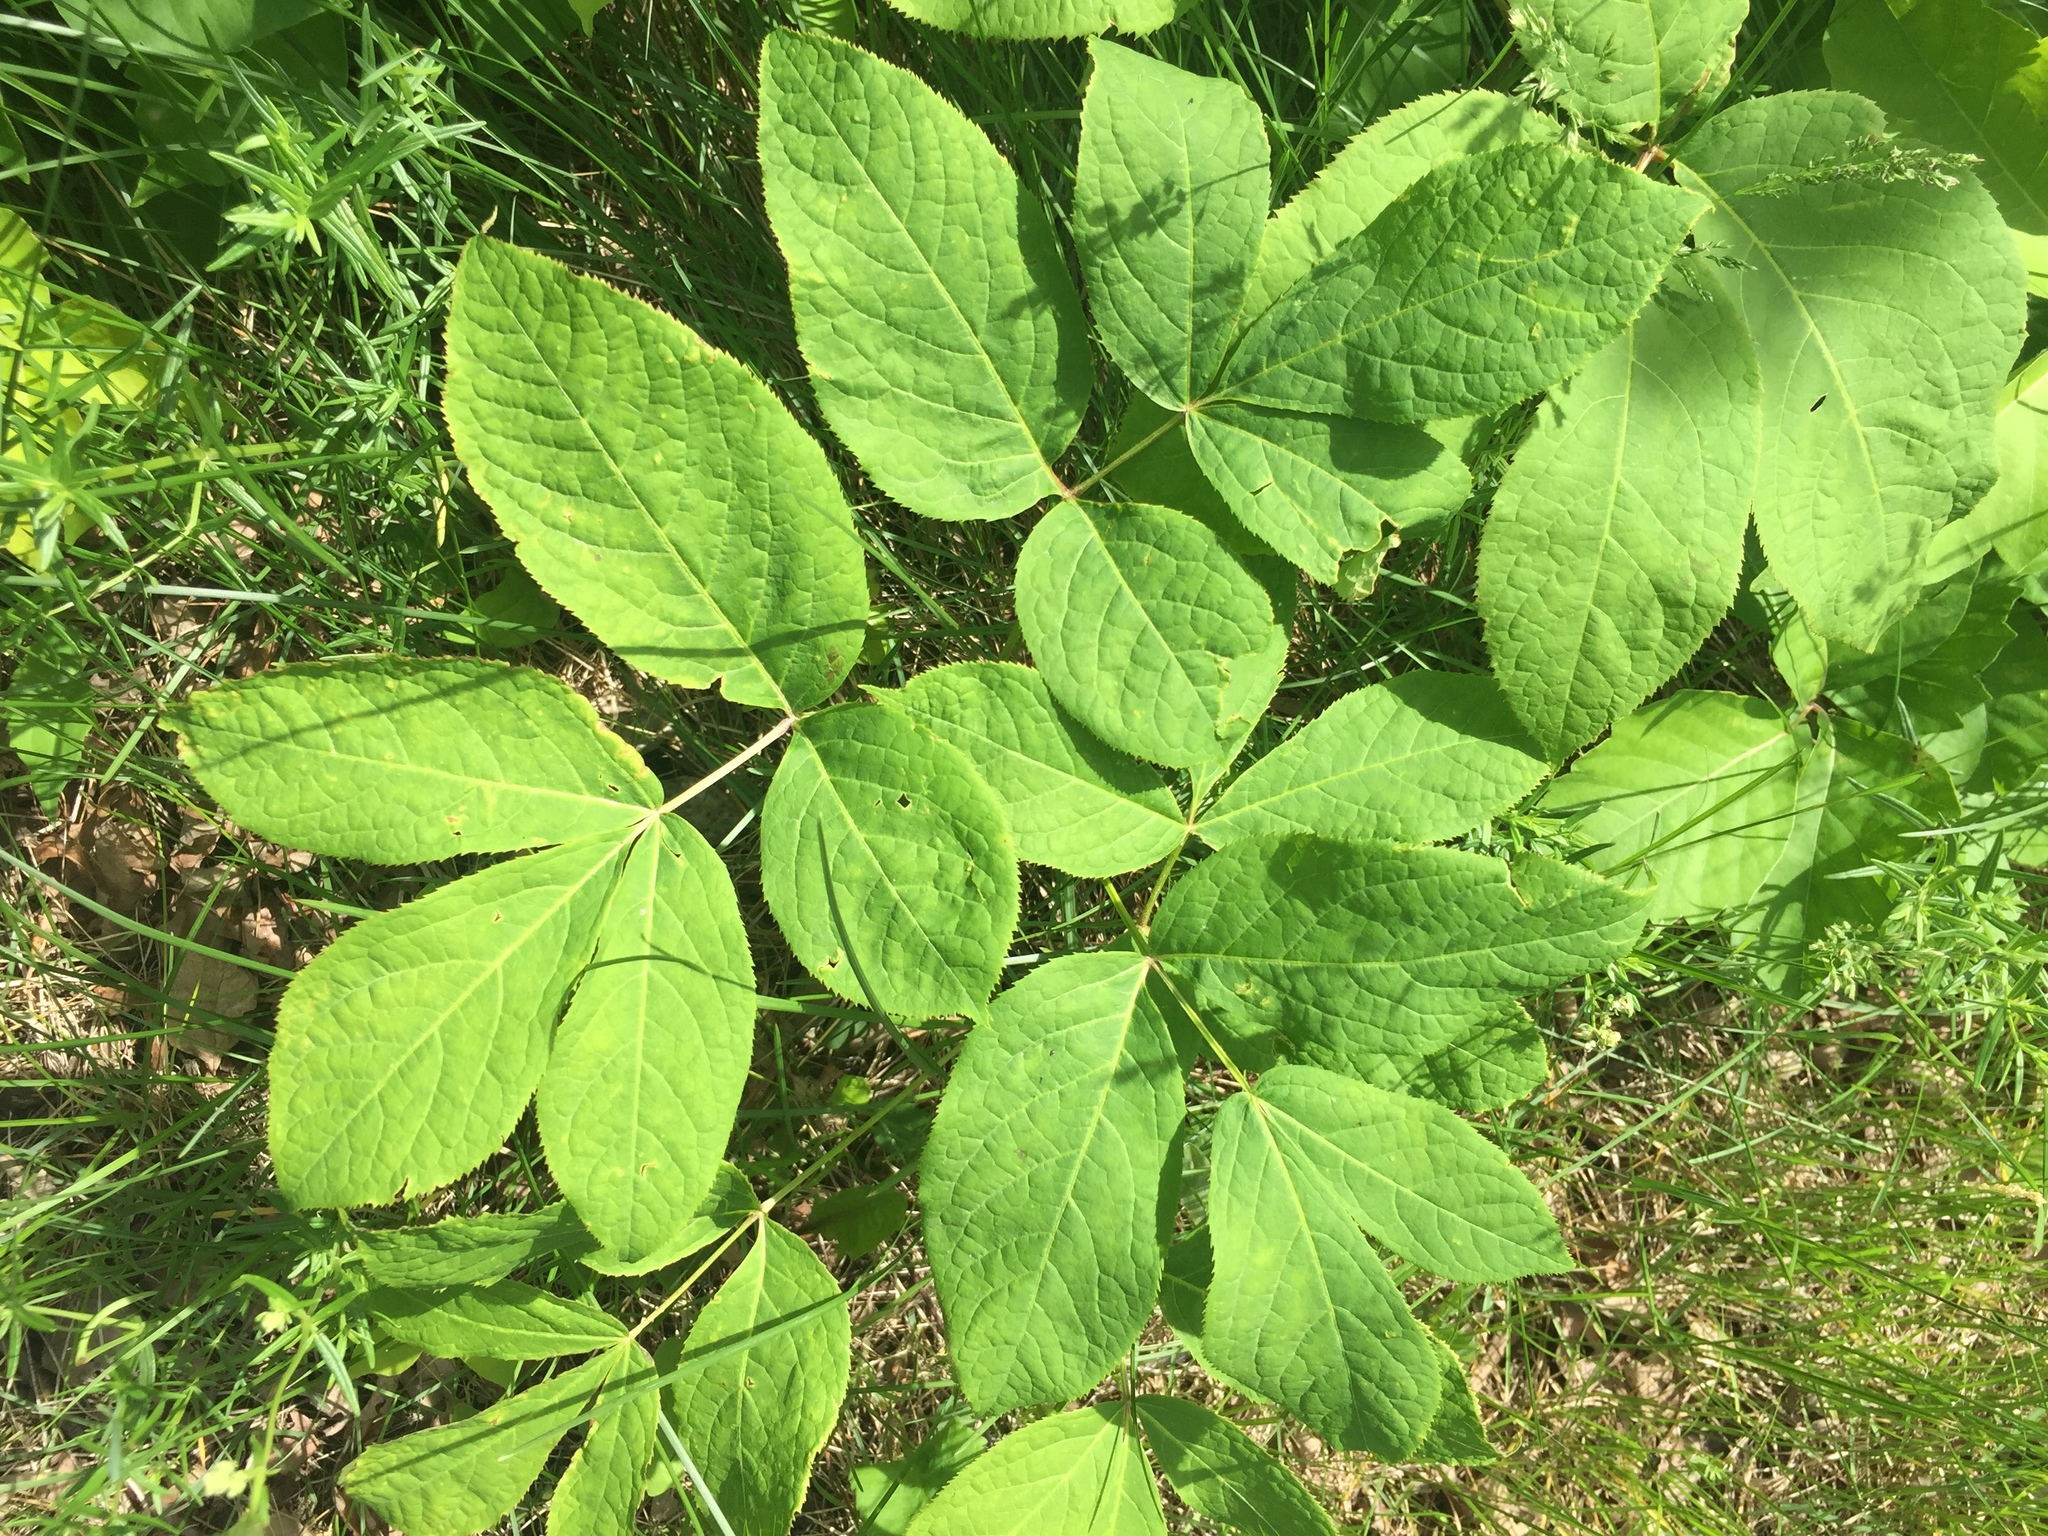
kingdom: Plantae
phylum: Tracheophyta
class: Magnoliopsida
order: Apiales
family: Araliaceae
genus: Aralia
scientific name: Aralia nudicaulis
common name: Wild sarsaparilla
